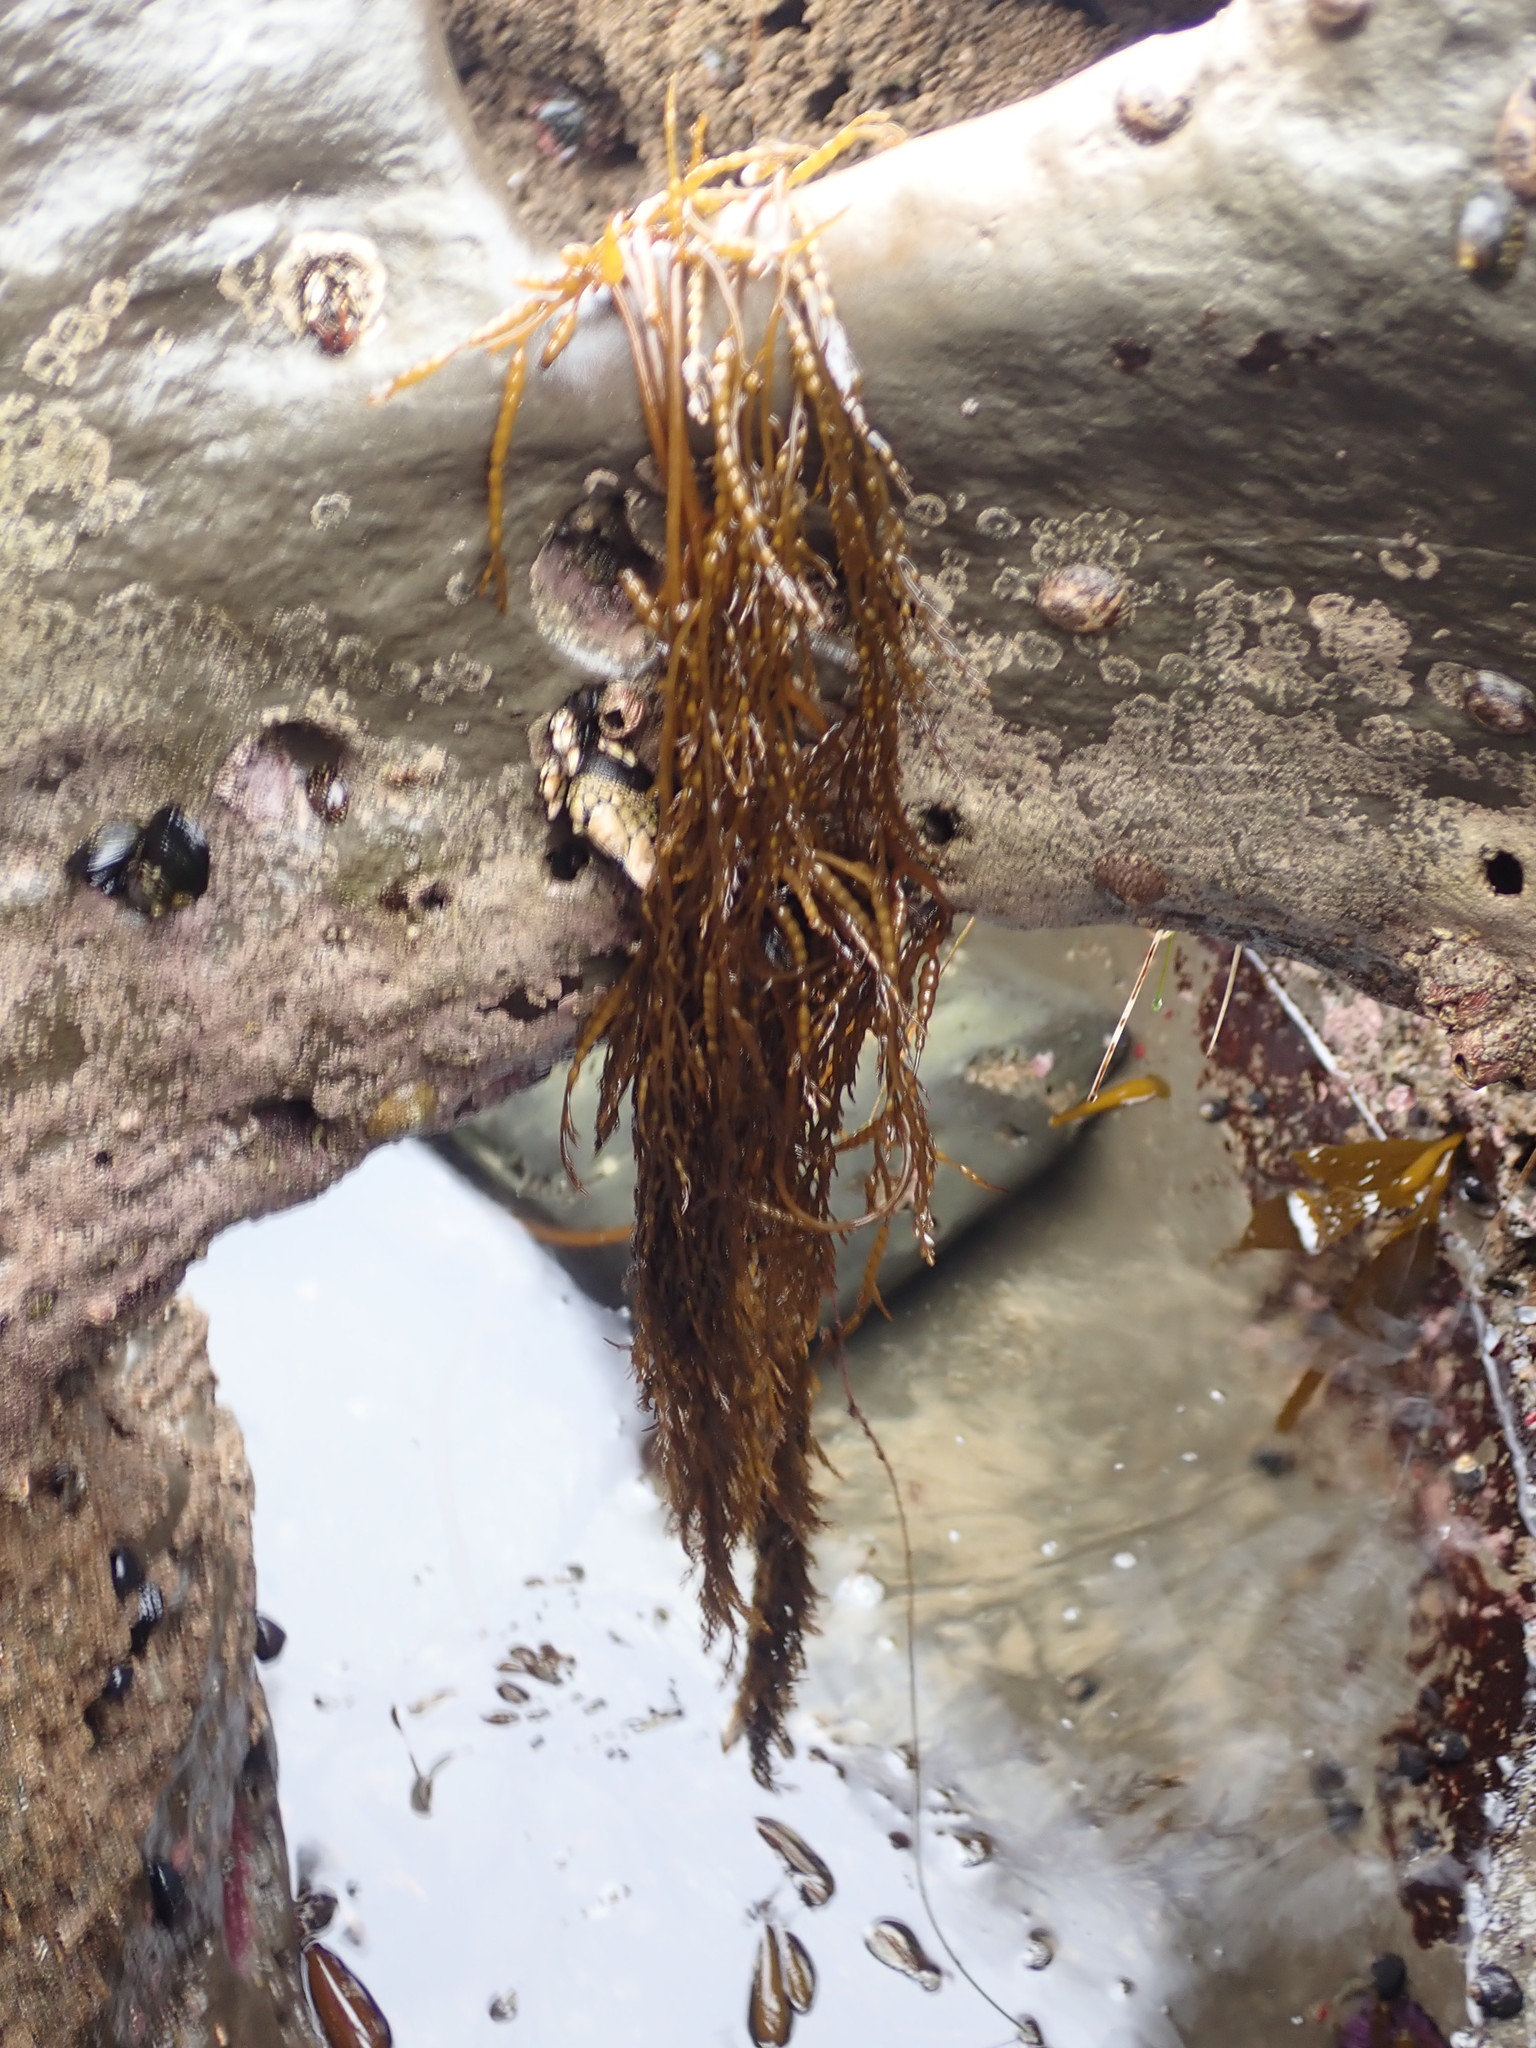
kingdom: Chromista
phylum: Ochrophyta
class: Phaeophyceae
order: Fucales
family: Sargassaceae
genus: Stephanocystis
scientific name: Stephanocystis
